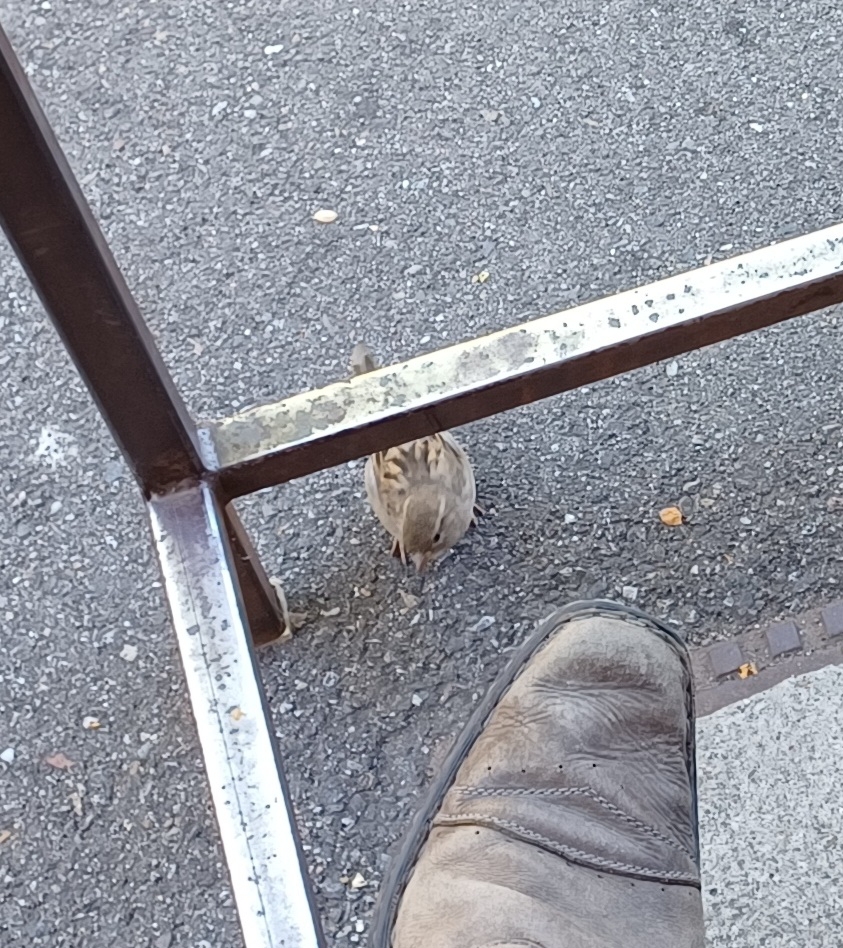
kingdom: Animalia
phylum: Chordata
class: Aves
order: Passeriformes
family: Passeridae
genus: Passer
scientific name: Passer domesticus
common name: House sparrow
